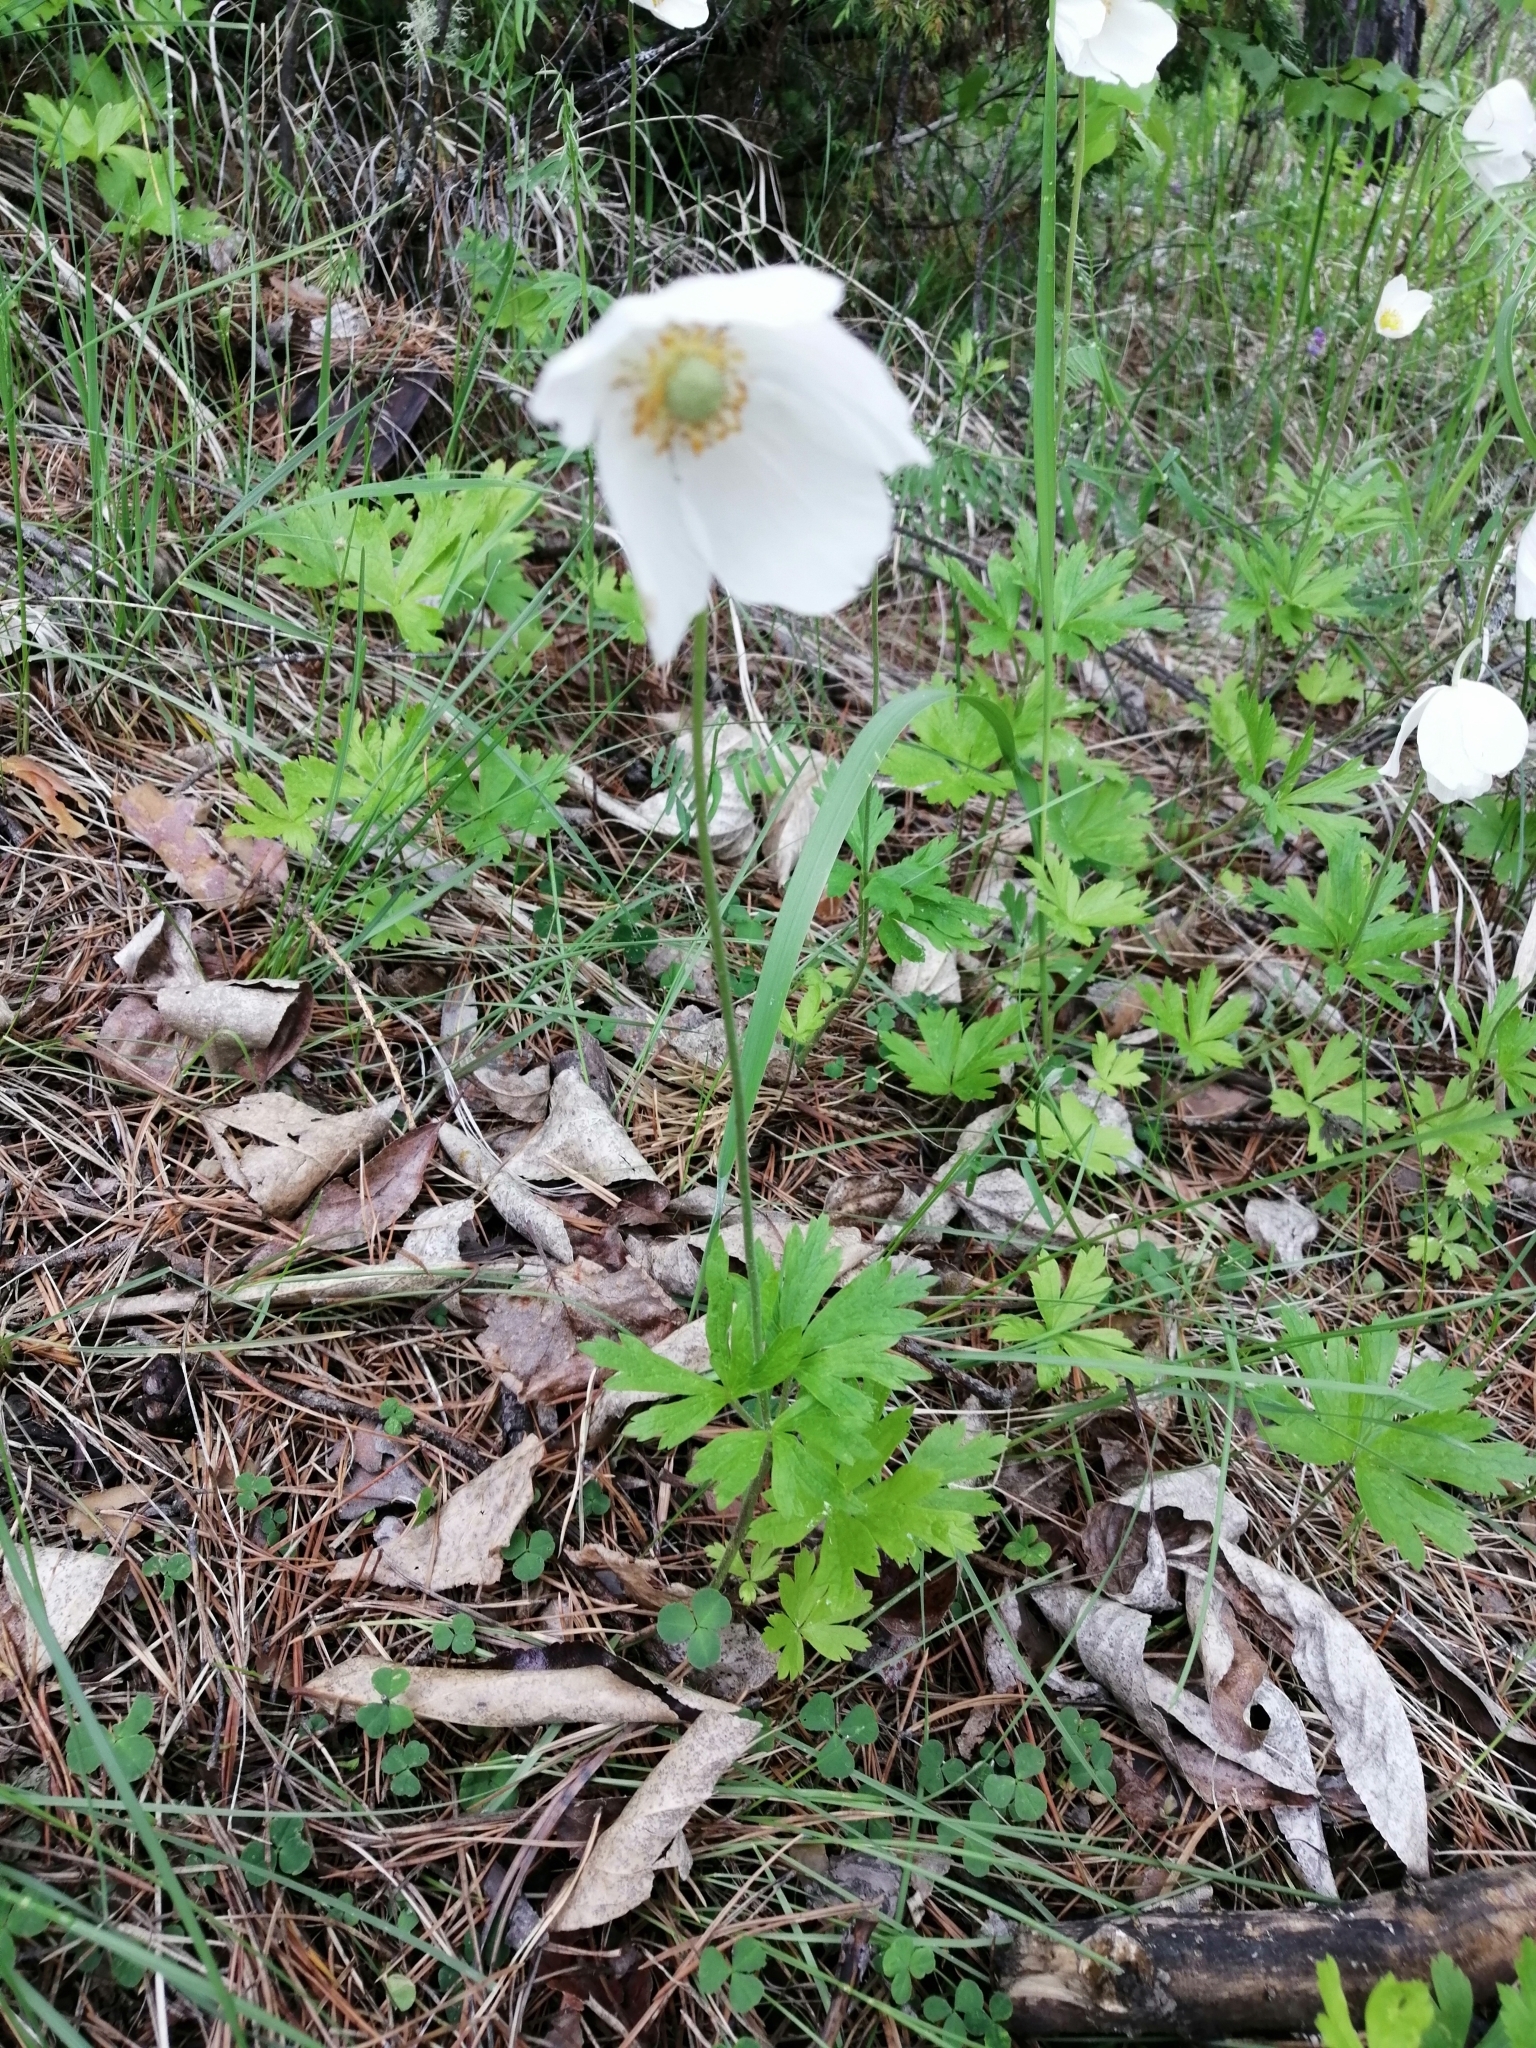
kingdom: Plantae
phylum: Tracheophyta
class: Magnoliopsida
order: Ranunculales
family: Ranunculaceae
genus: Anemone
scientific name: Anemone sylvestris
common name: Snowdrop anemone
